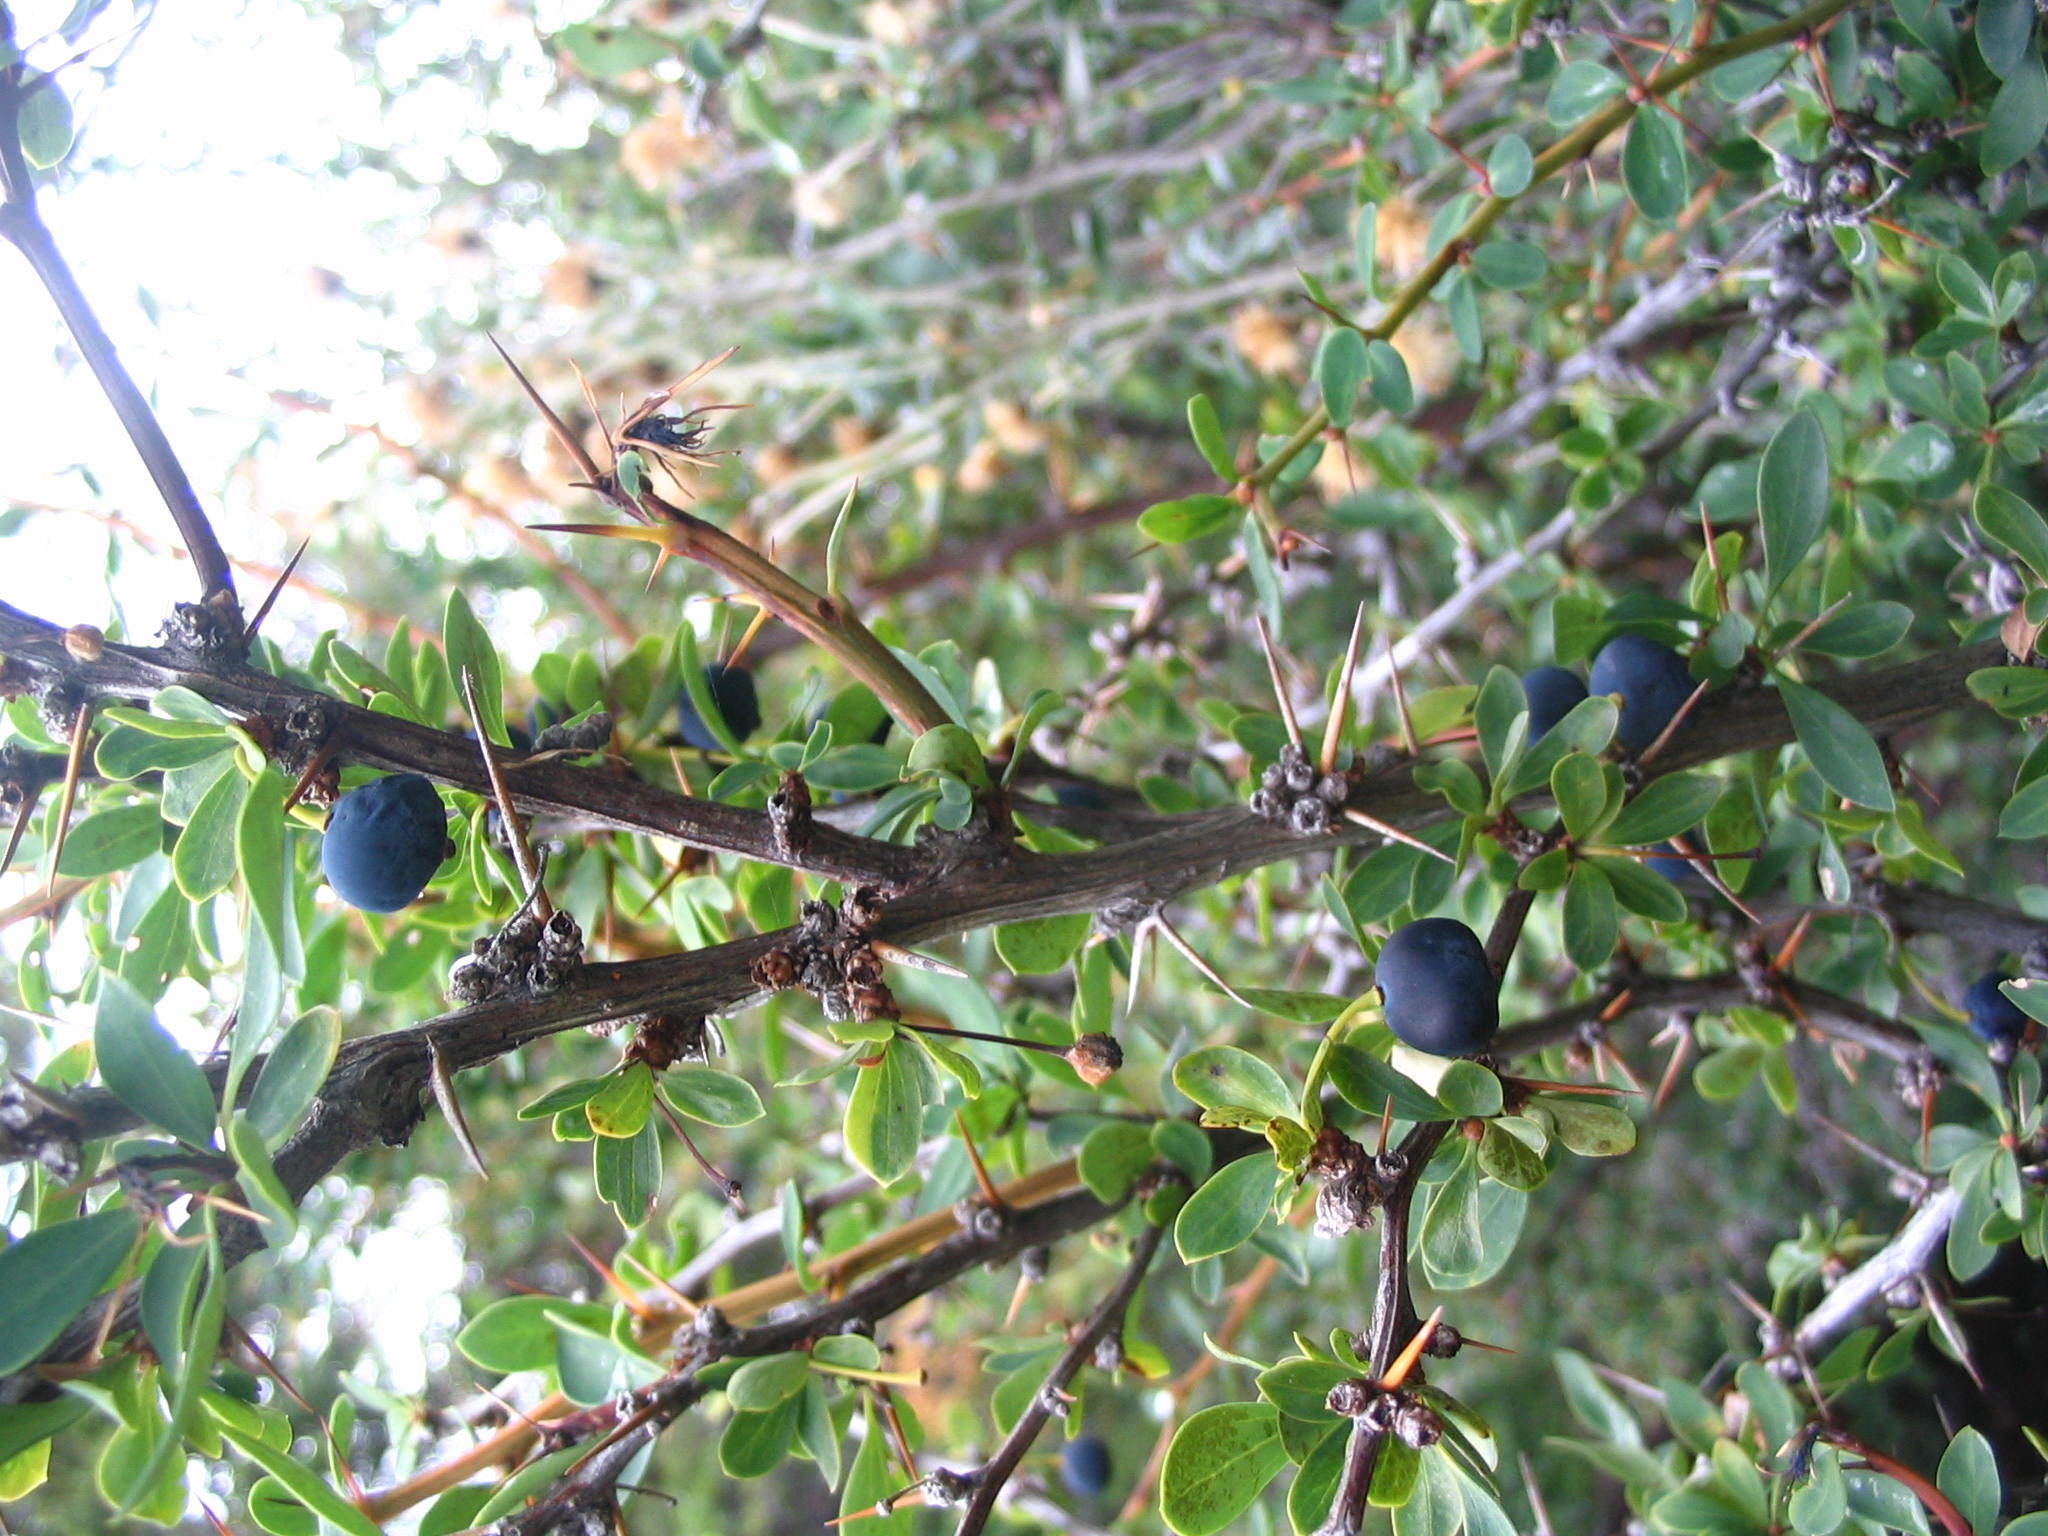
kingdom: Plantae
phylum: Tracheophyta
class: Magnoliopsida
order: Ranunculales
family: Berberidaceae
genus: Berberis
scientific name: Berberis microphylla
